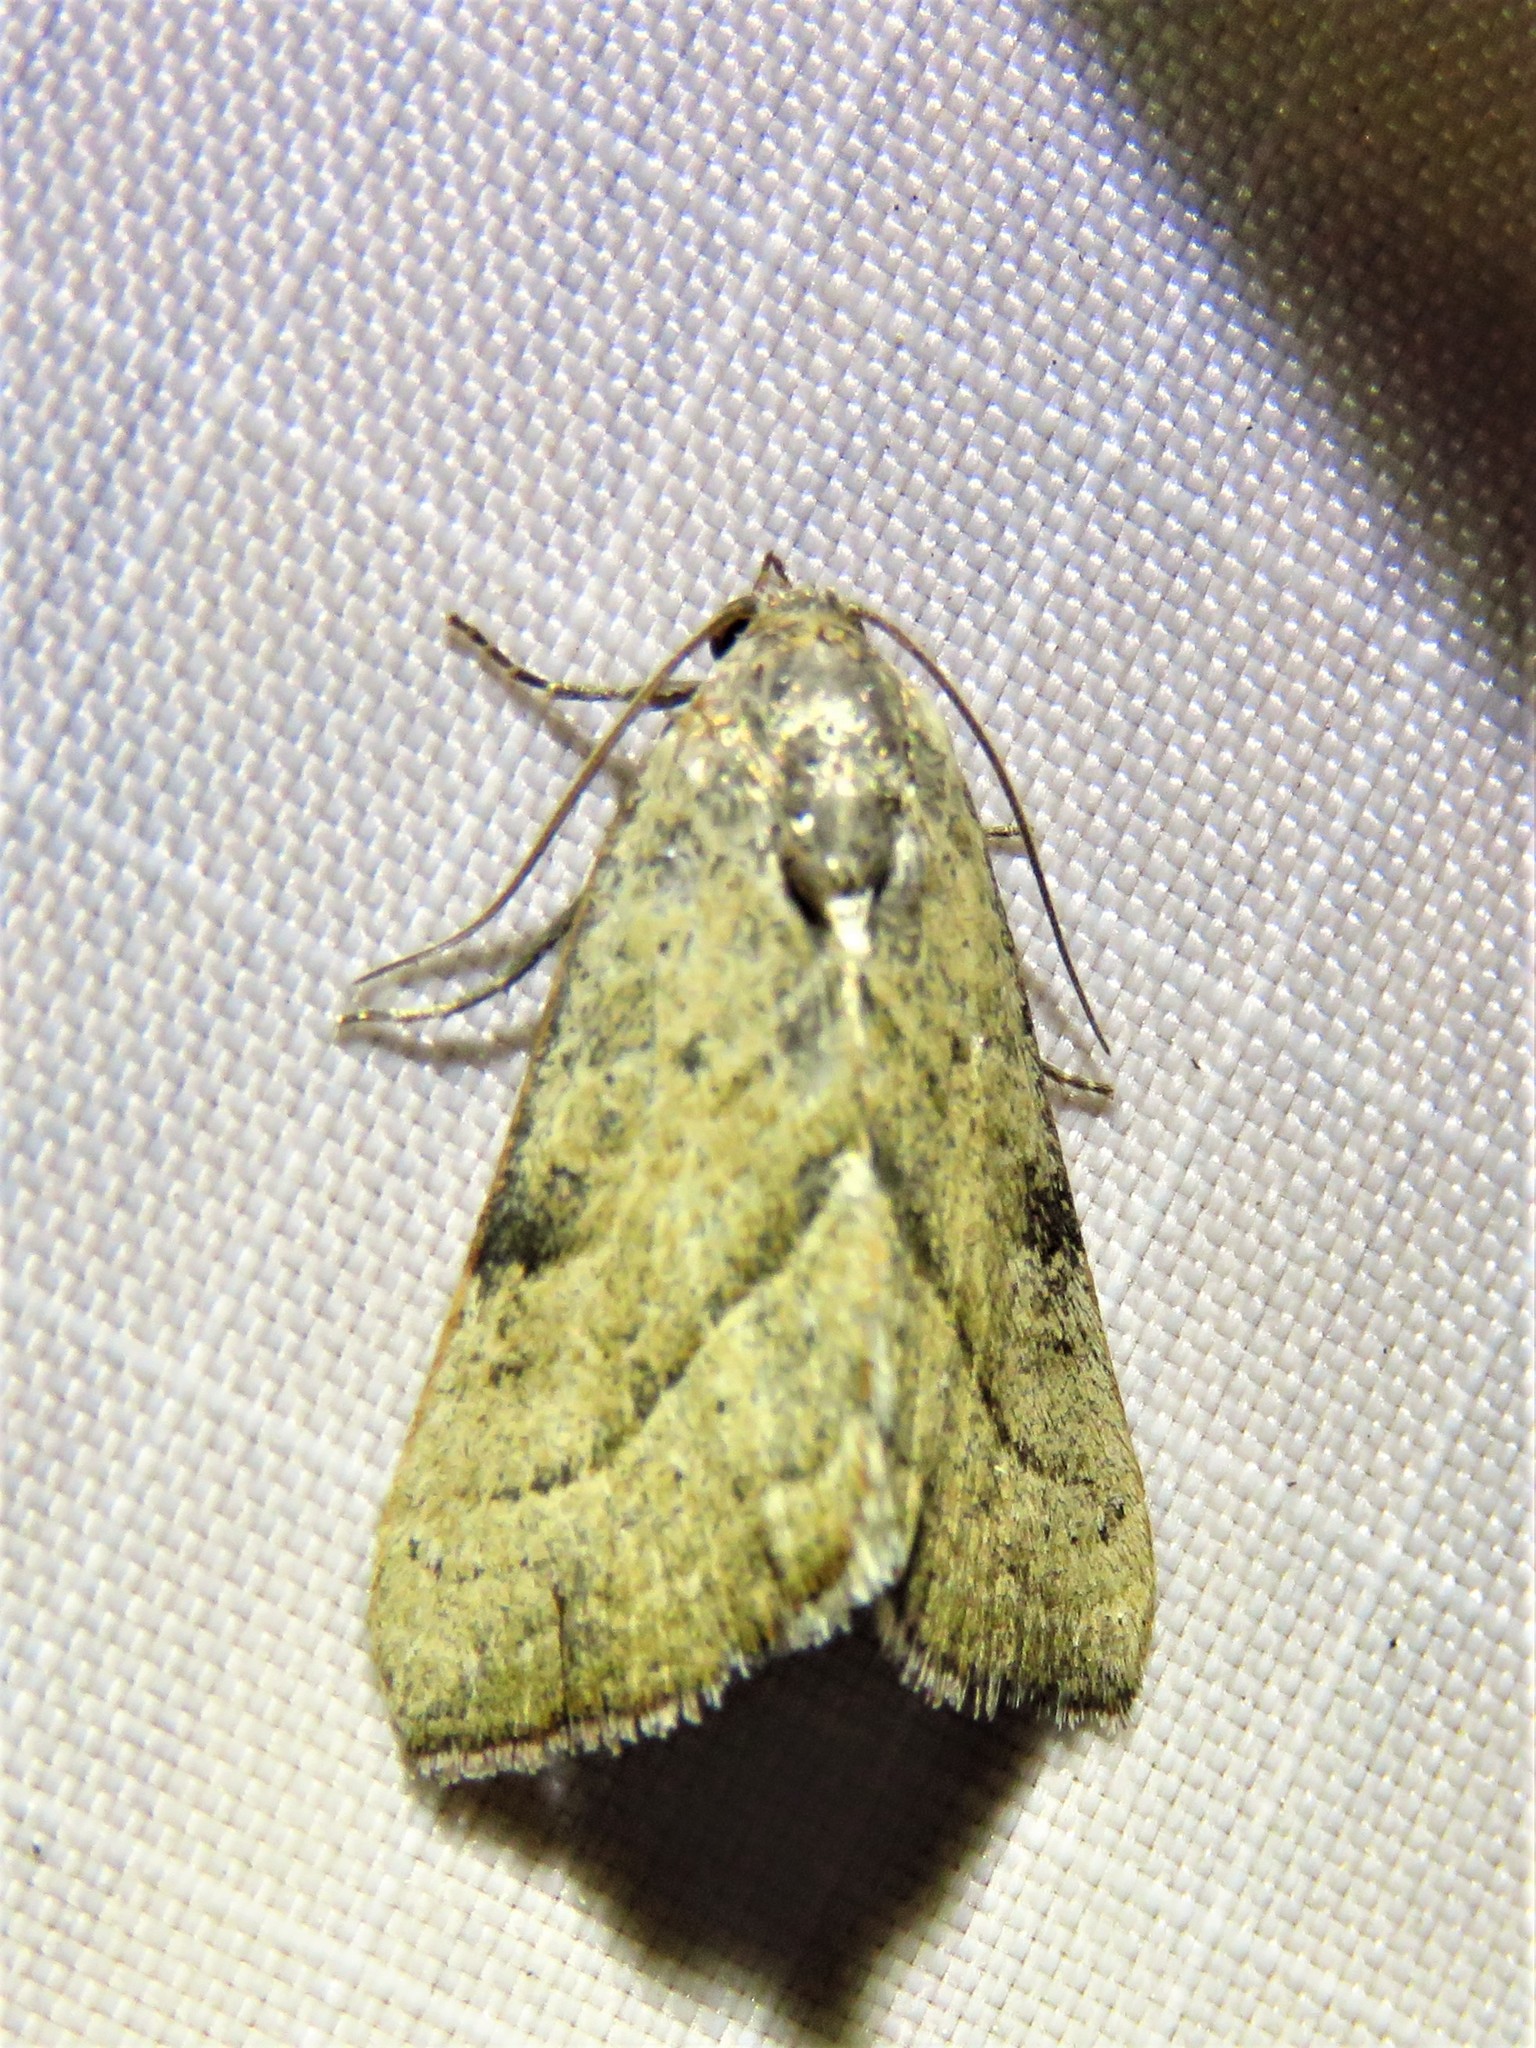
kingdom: Animalia
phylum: Arthropoda
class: Insecta
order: Lepidoptera
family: Noctuidae
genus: Galgula
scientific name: Galgula partita
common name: Wedgeling
